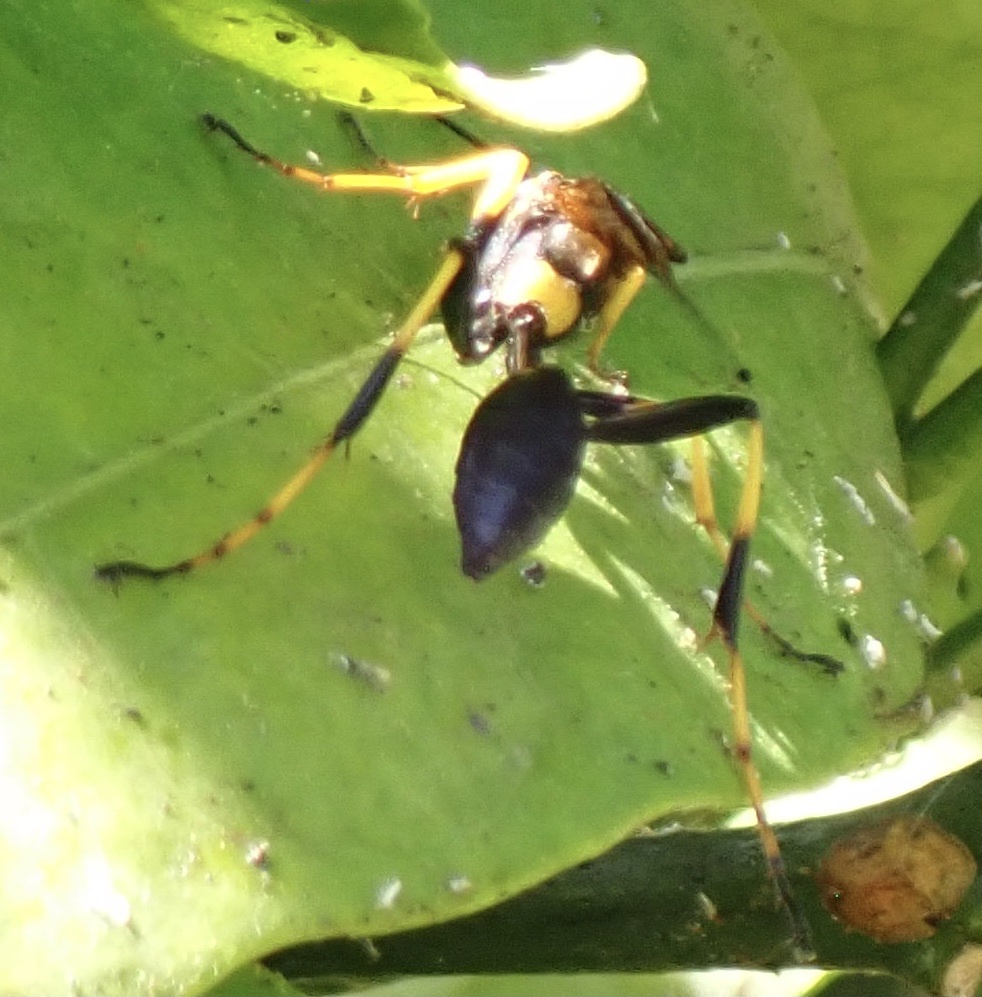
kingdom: Animalia
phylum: Arthropoda
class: Insecta
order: Hymenoptera
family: Sphecidae
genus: Sceliphron
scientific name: Sceliphron caementarium
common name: Mud dauber
